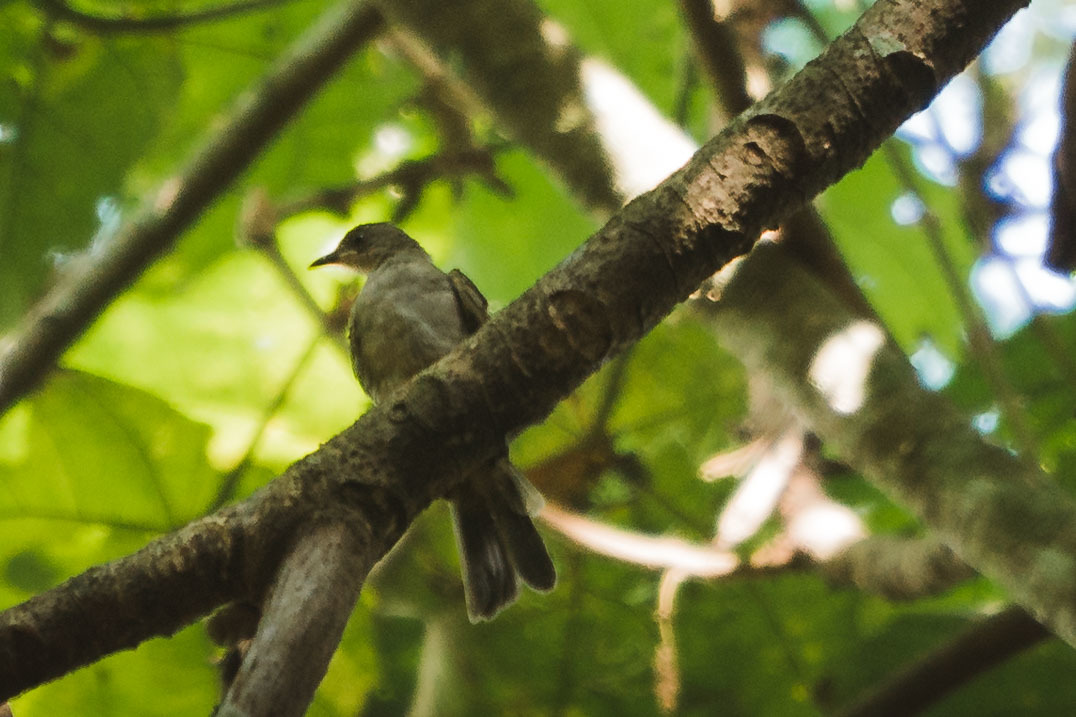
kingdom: Animalia
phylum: Chordata
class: Aves
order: Passeriformes
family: Pycnonotidae
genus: Pycnonotus
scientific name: Pycnonotus plumosus
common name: Olive-winged bulbul
